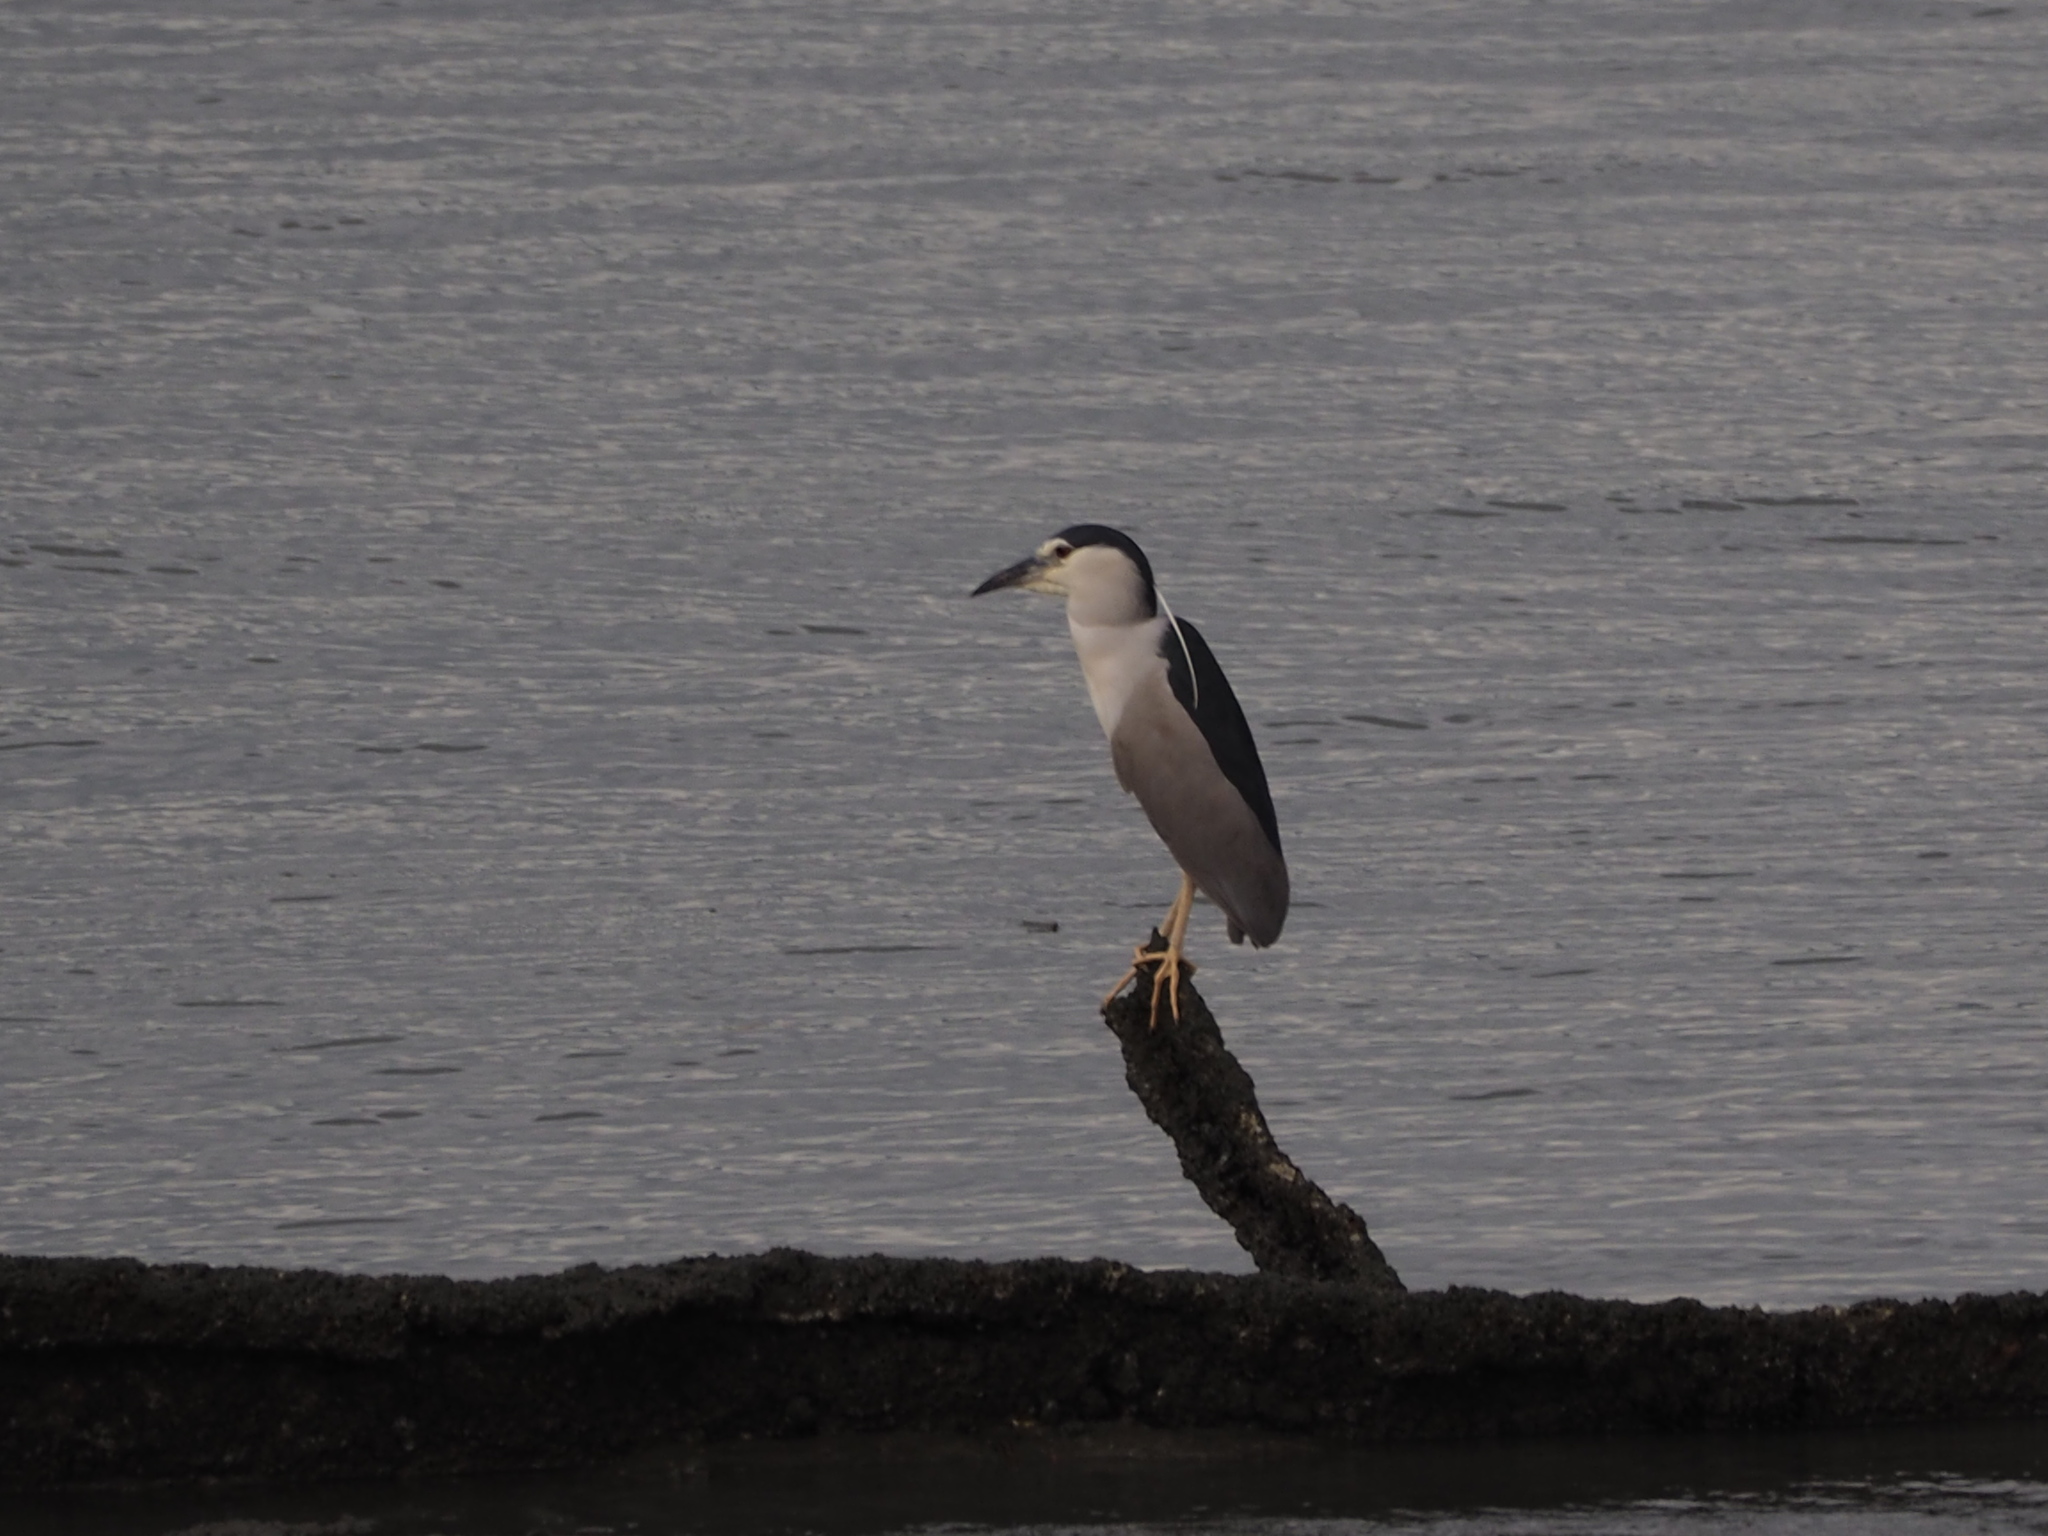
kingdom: Animalia
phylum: Chordata
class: Aves
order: Pelecaniformes
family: Ardeidae
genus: Nycticorax
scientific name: Nycticorax nycticorax
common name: Black-crowned night heron
